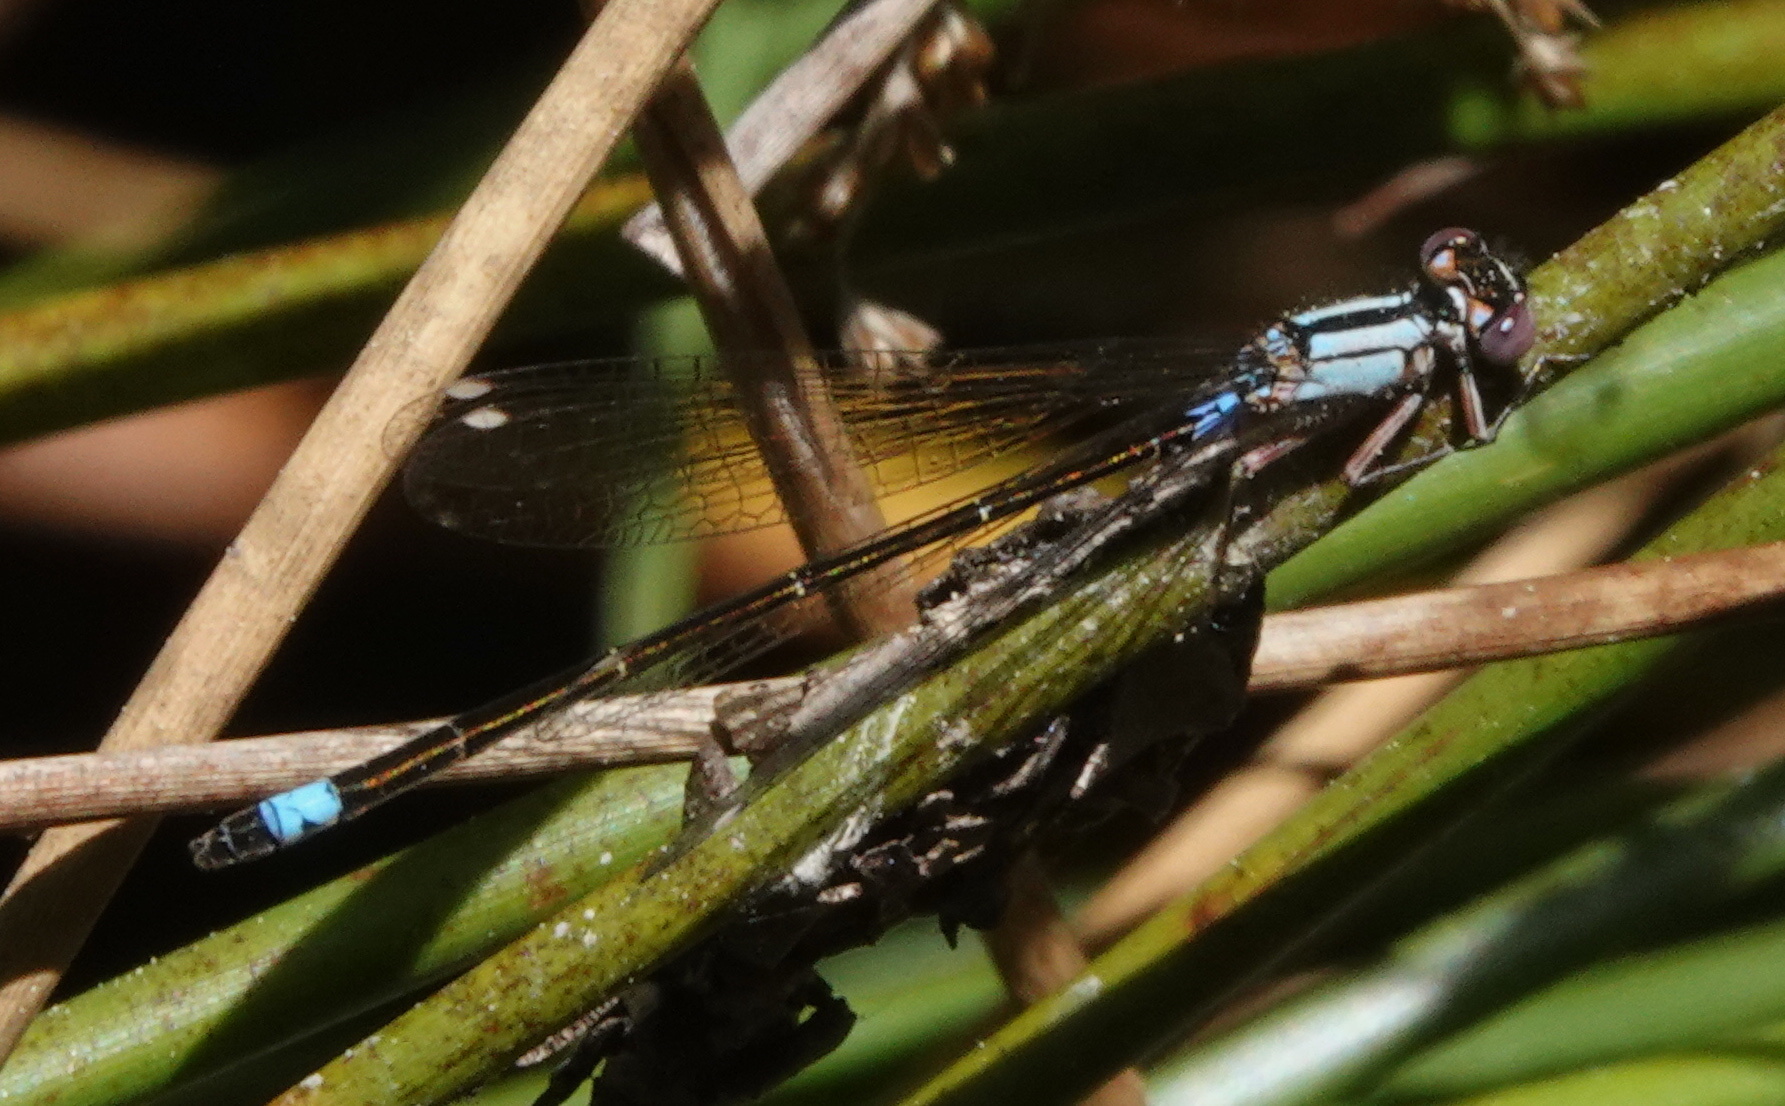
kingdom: Animalia
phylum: Arthropoda
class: Insecta
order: Odonata
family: Coenagrionidae
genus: Ischnura
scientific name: Ischnura cervula
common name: Pacific forktail
